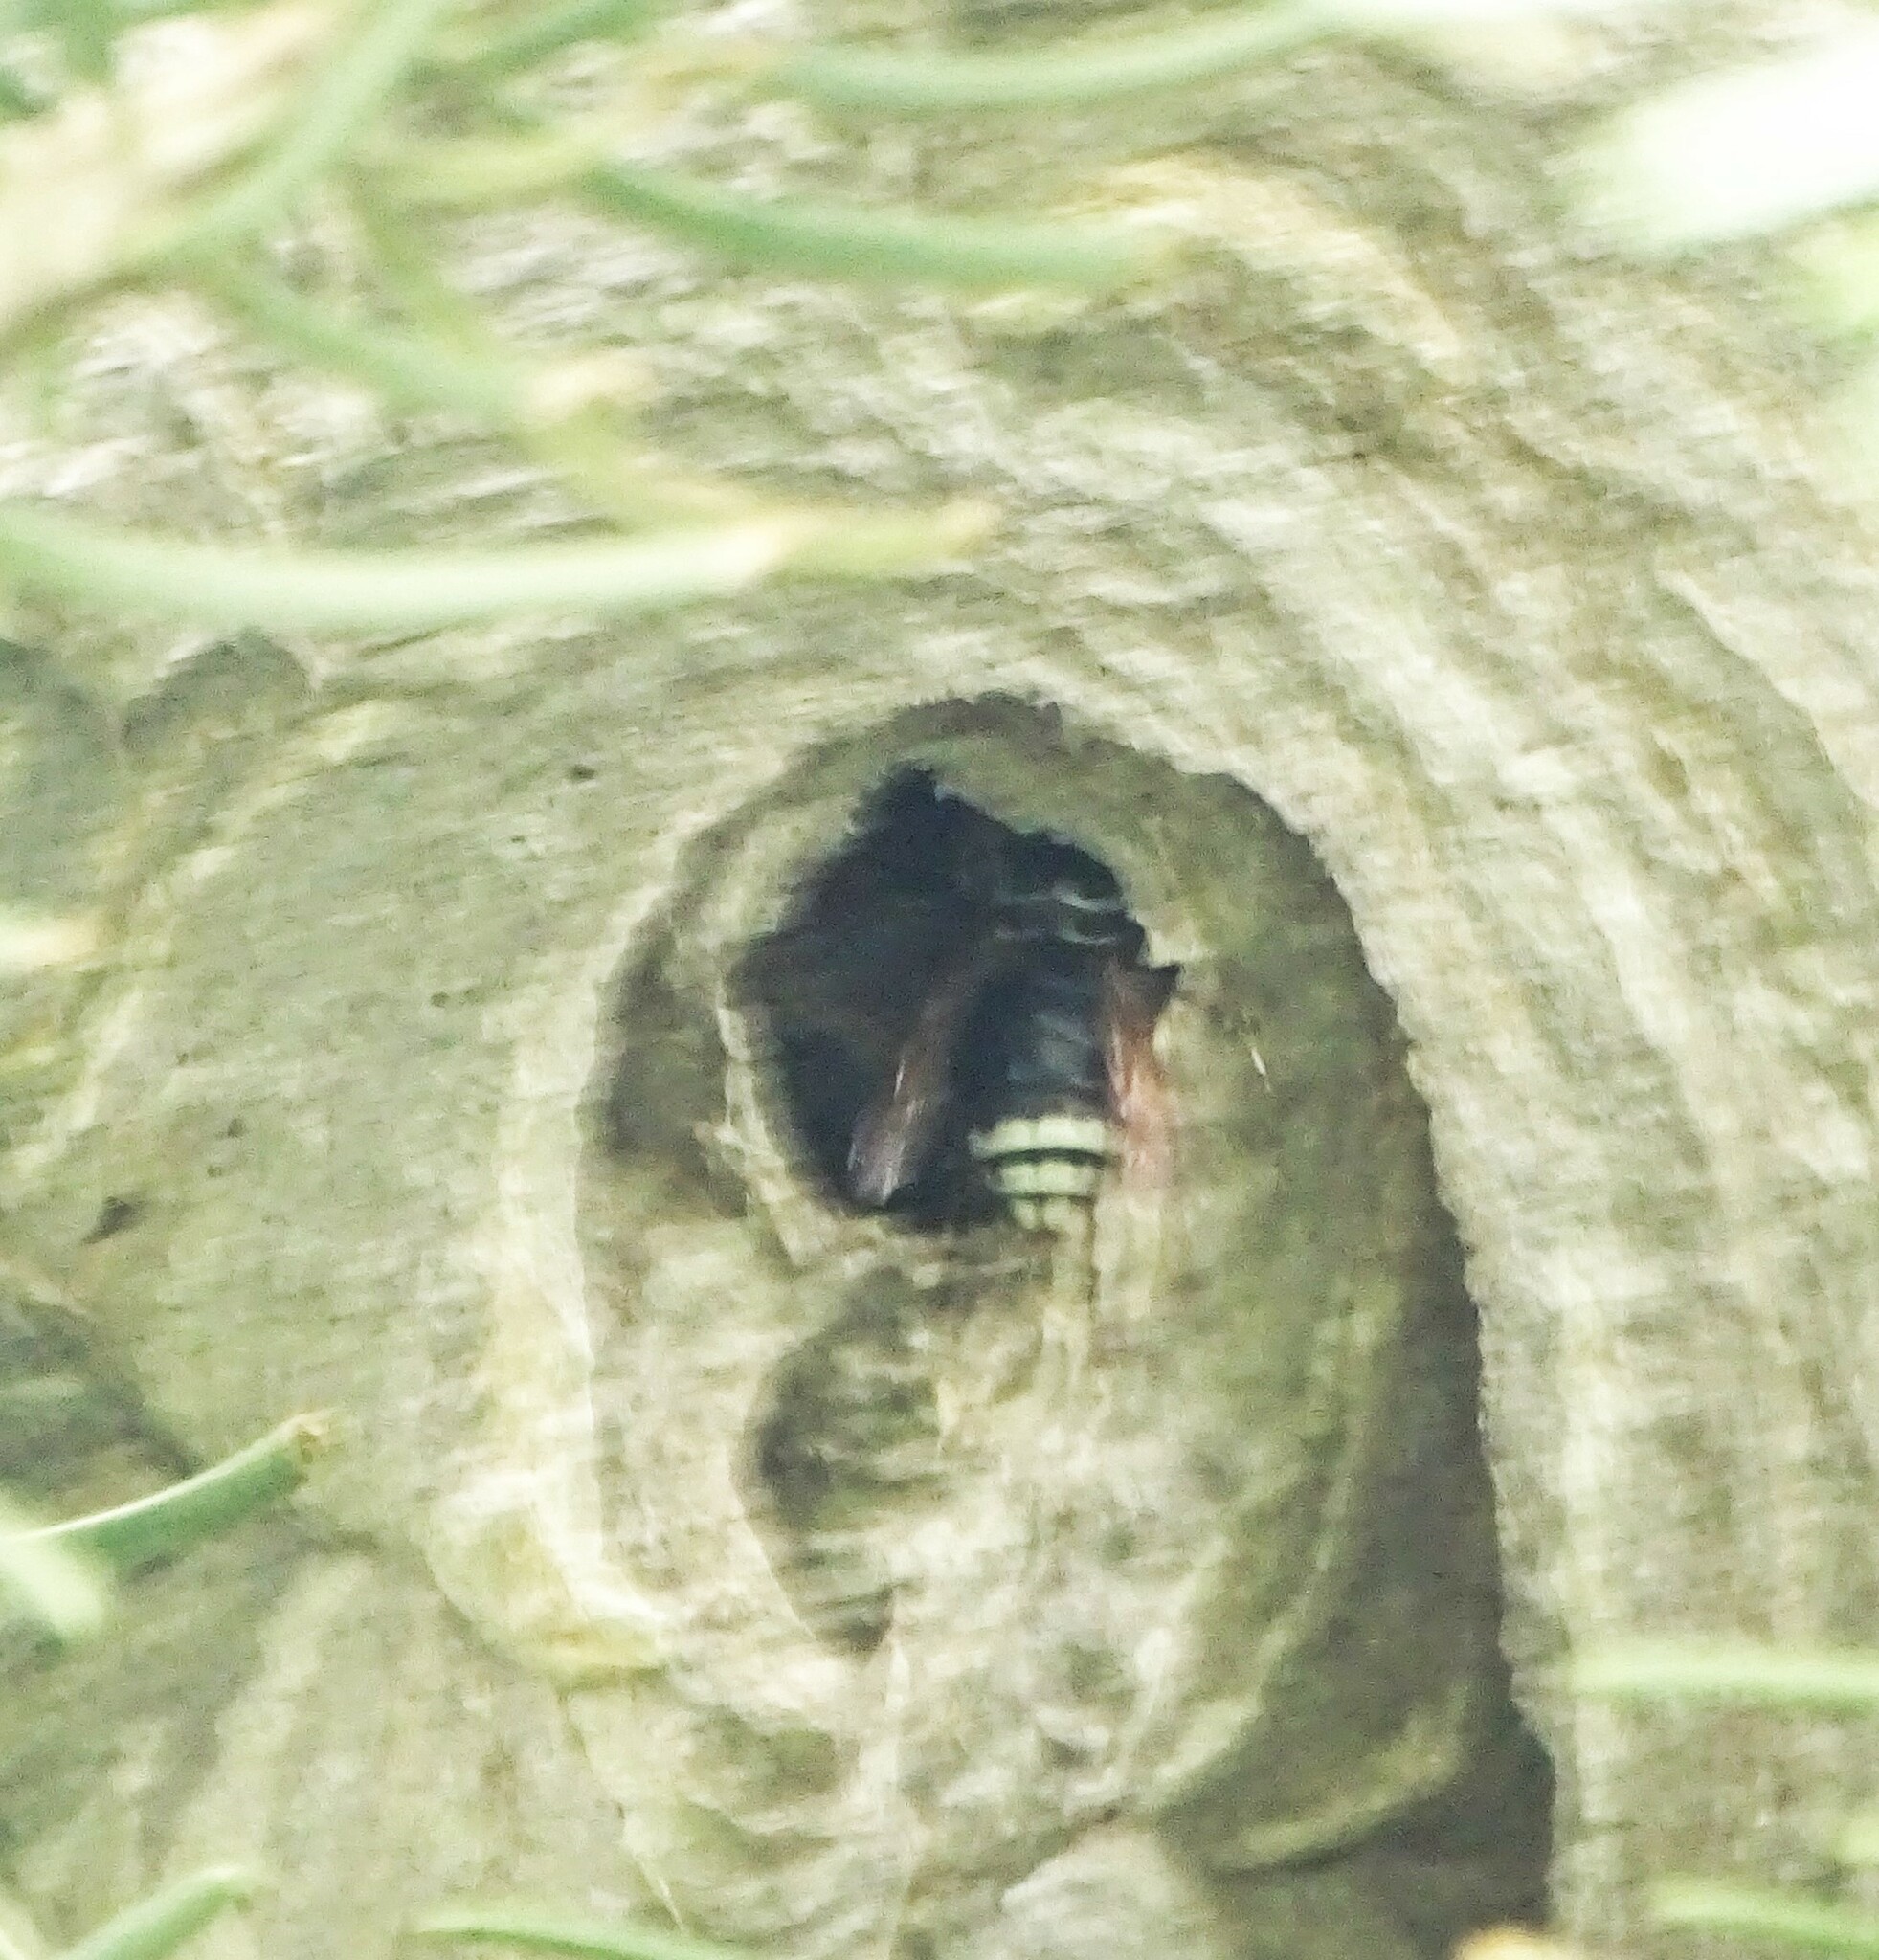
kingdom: Animalia
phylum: Arthropoda
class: Insecta
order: Hymenoptera
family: Vespidae
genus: Dolichovespula
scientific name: Dolichovespula maculata
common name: Bald-faced hornet
